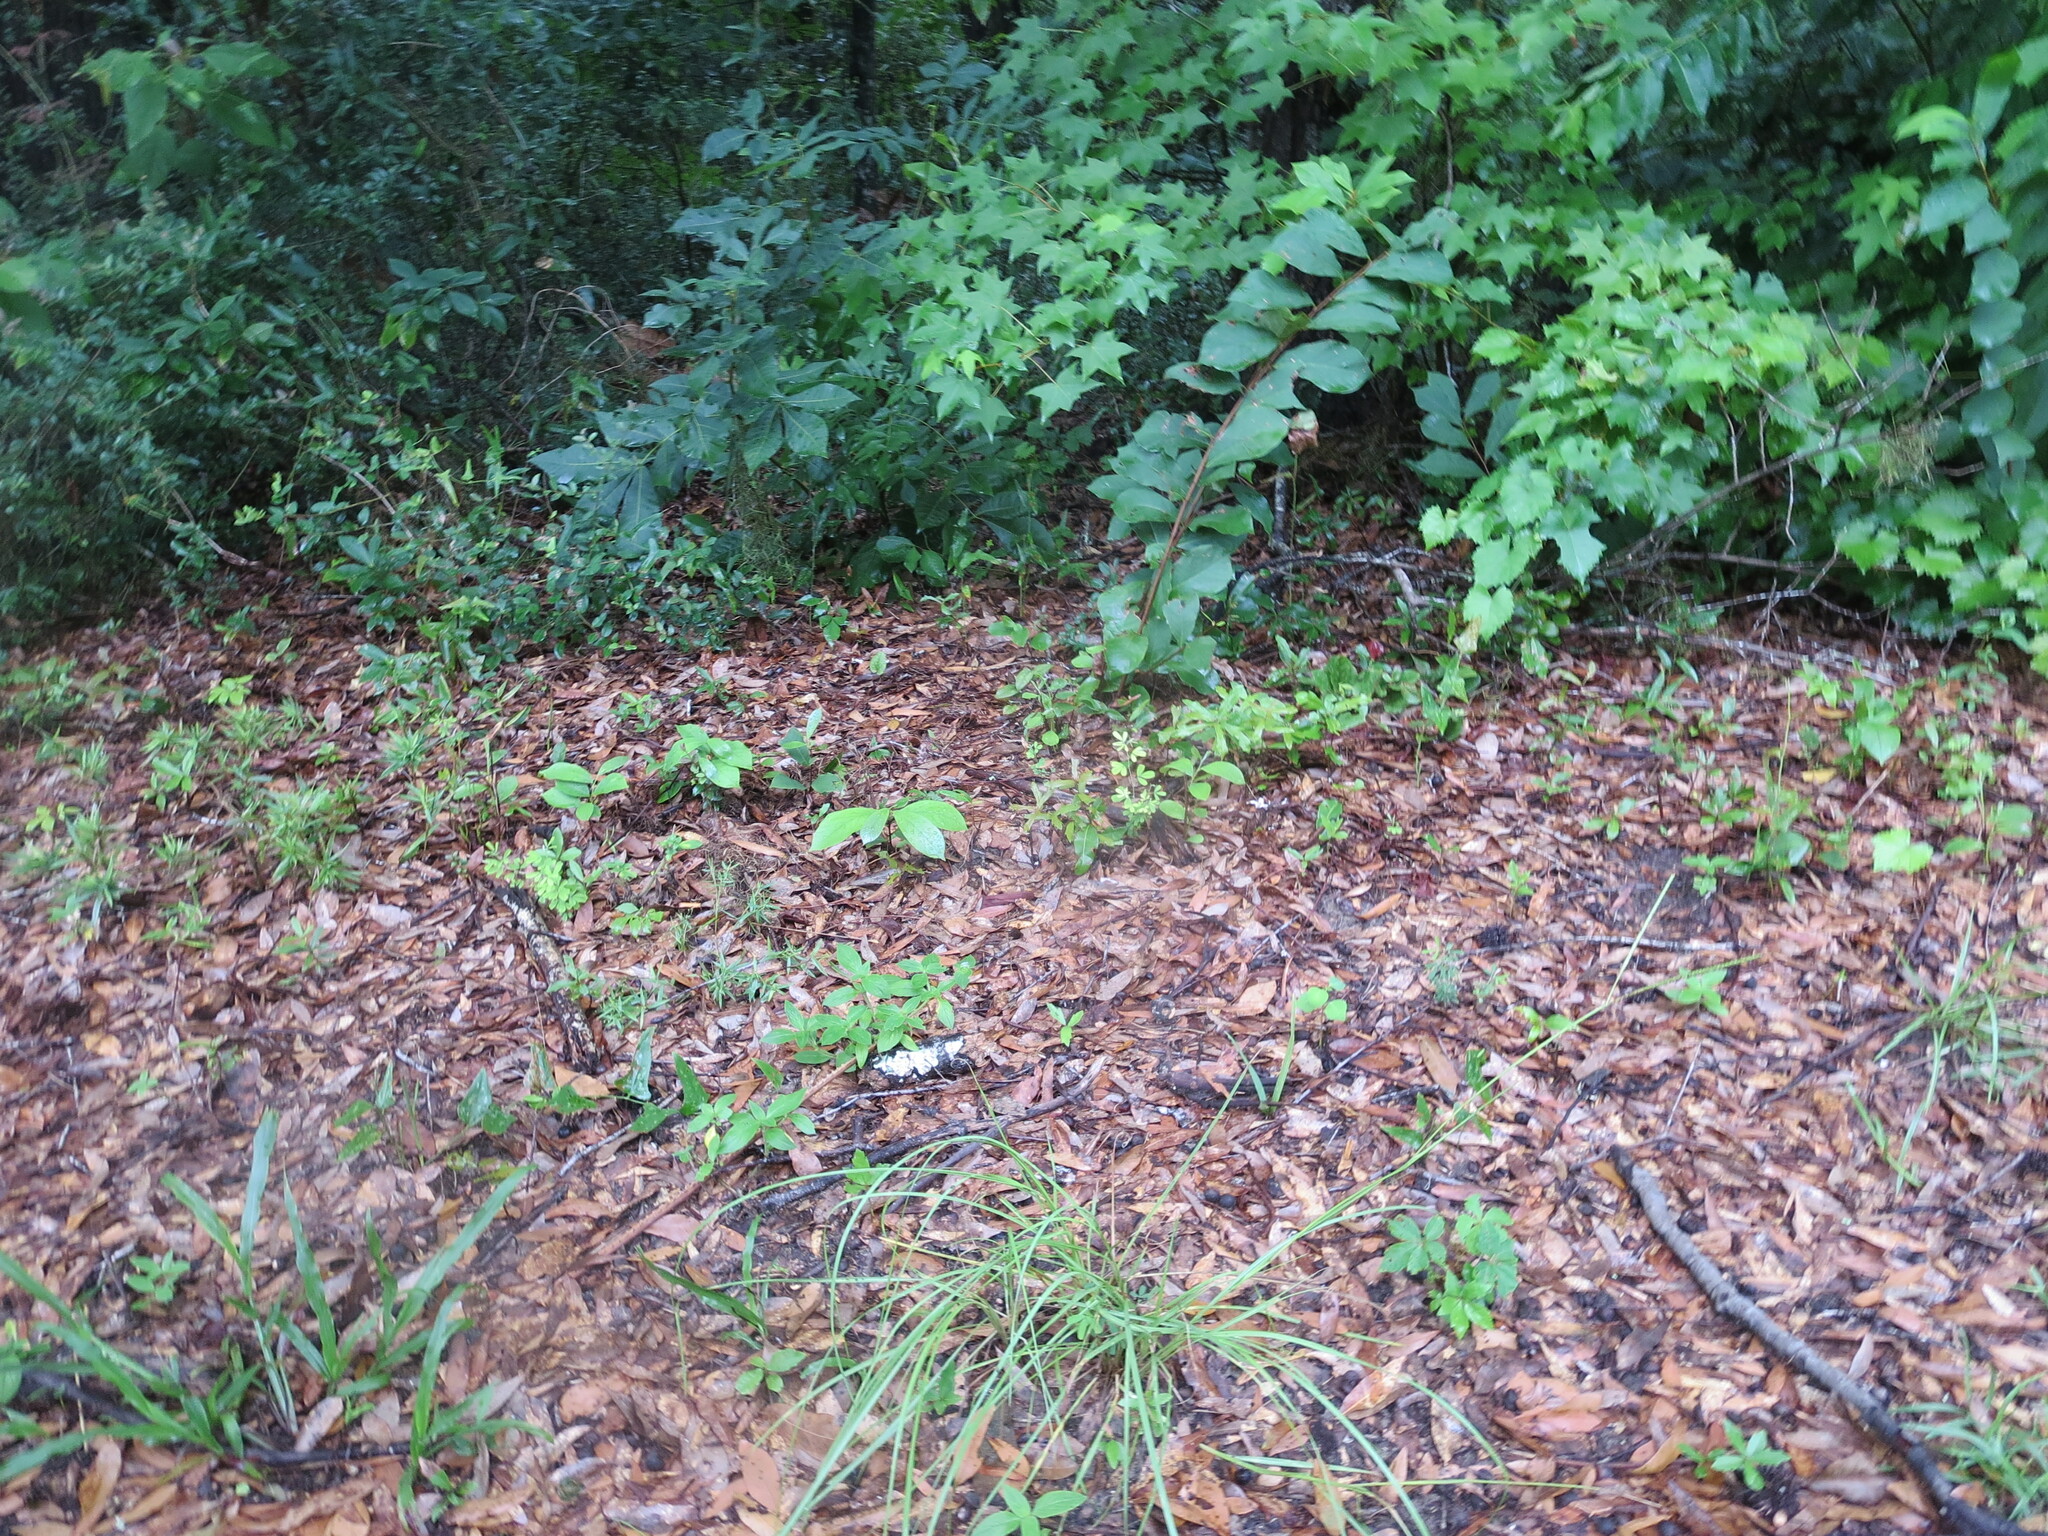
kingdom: Plantae
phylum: Tracheophyta
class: Magnoliopsida
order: Magnoliales
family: Annonaceae
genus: Asimina
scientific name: Asimina parviflora
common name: Dwarf pawpaw
